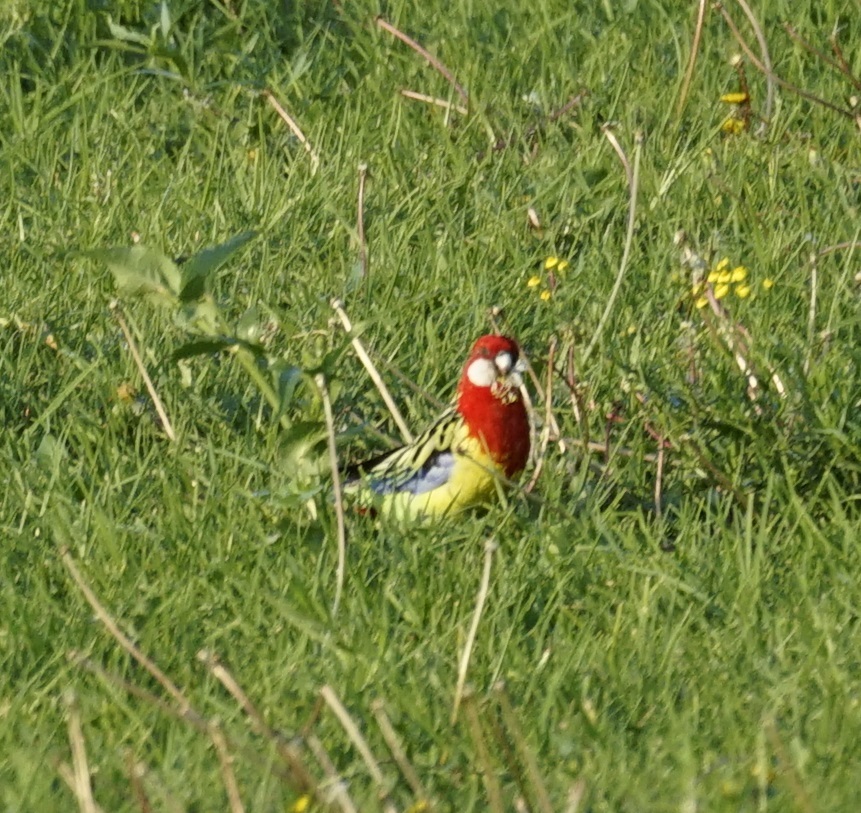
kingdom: Animalia
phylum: Chordata
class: Aves
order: Psittaciformes
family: Psittacidae
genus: Platycercus
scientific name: Platycercus eximius
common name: Eastern rosella
